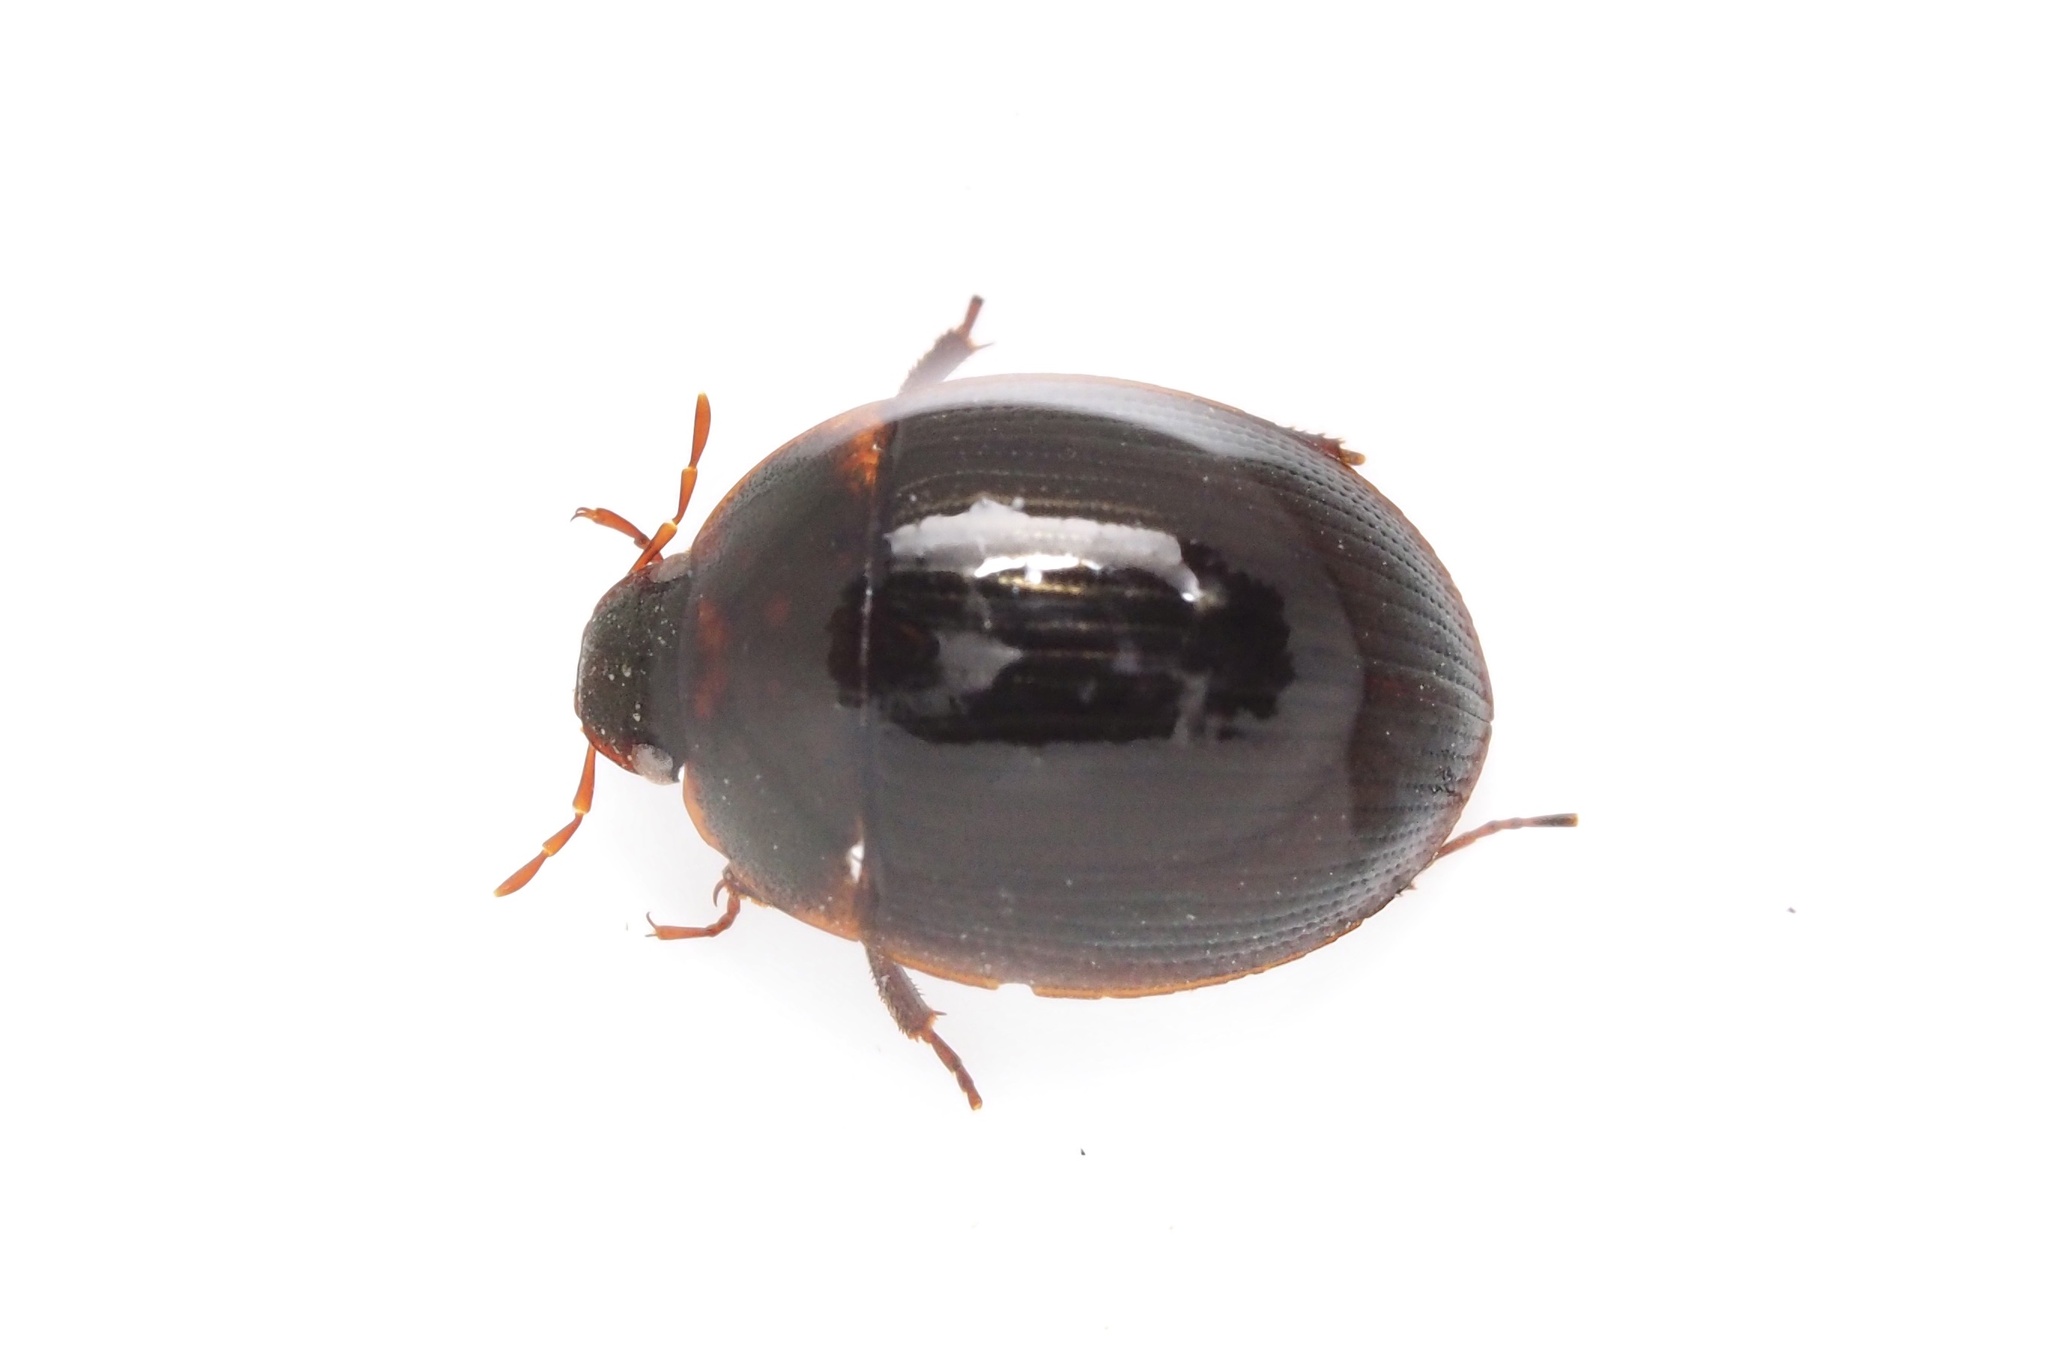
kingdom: Animalia
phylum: Arthropoda
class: Insecta
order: Coleoptera
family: Hydrophilidae
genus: Hydrocassis
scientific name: Hydrocassis lacustris
